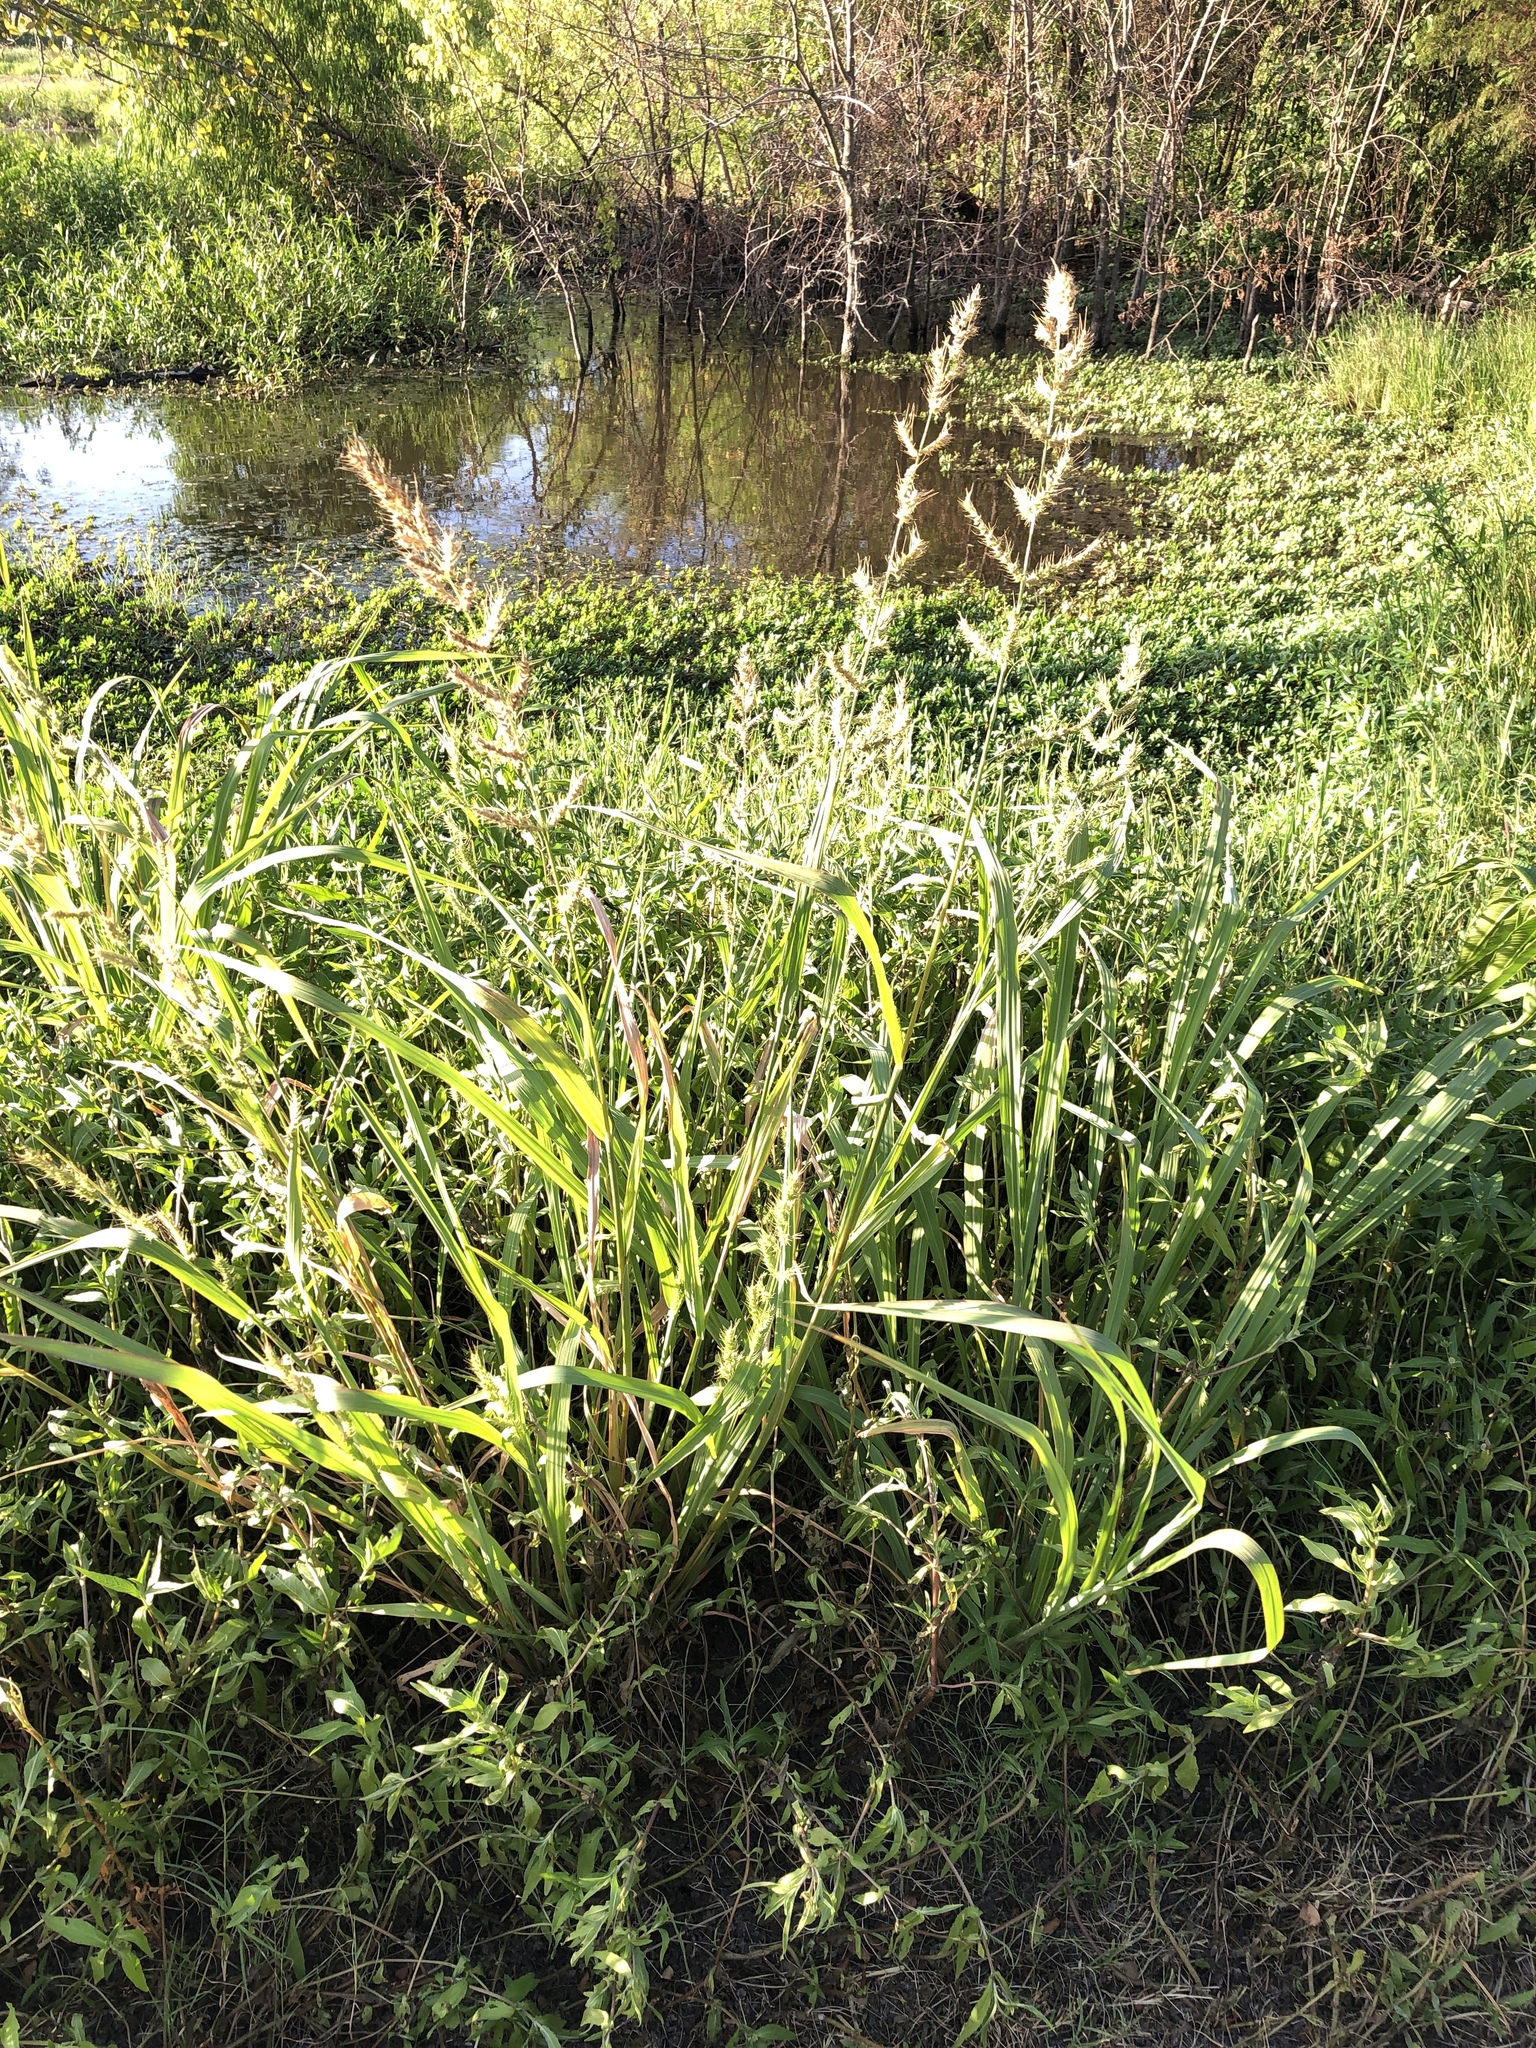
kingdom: Plantae
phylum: Tracheophyta
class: Liliopsida
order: Poales
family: Poaceae
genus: Echinochloa
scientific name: Echinochloa crus-galli
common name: Cockspur
